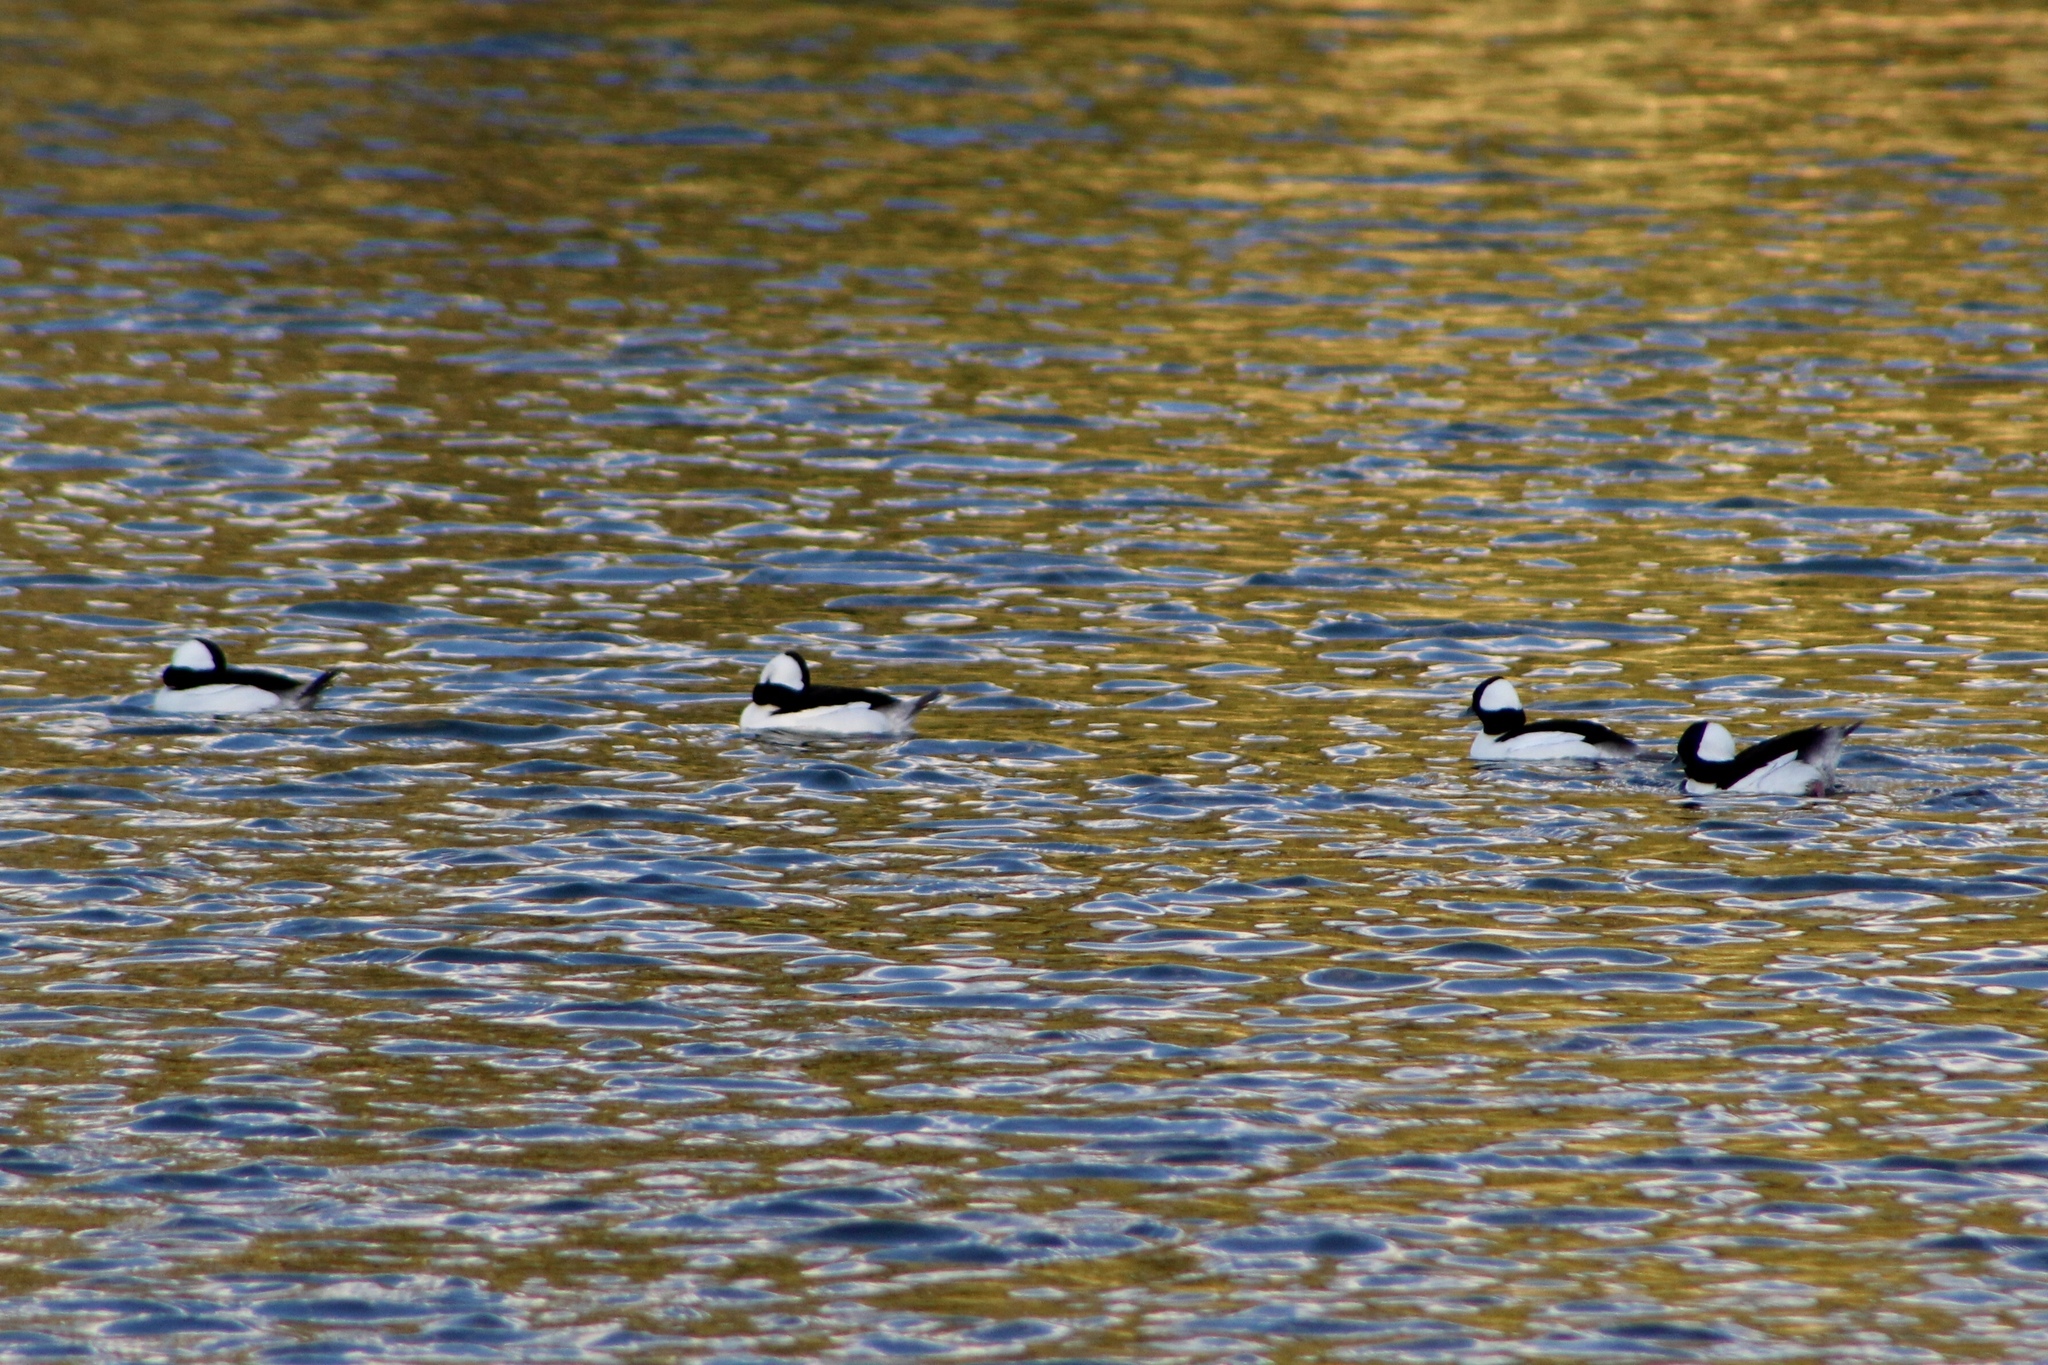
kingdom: Animalia
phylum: Chordata
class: Aves
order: Anseriformes
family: Anatidae
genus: Bucephala
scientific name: Bucephala albeola
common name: Bufflehead
